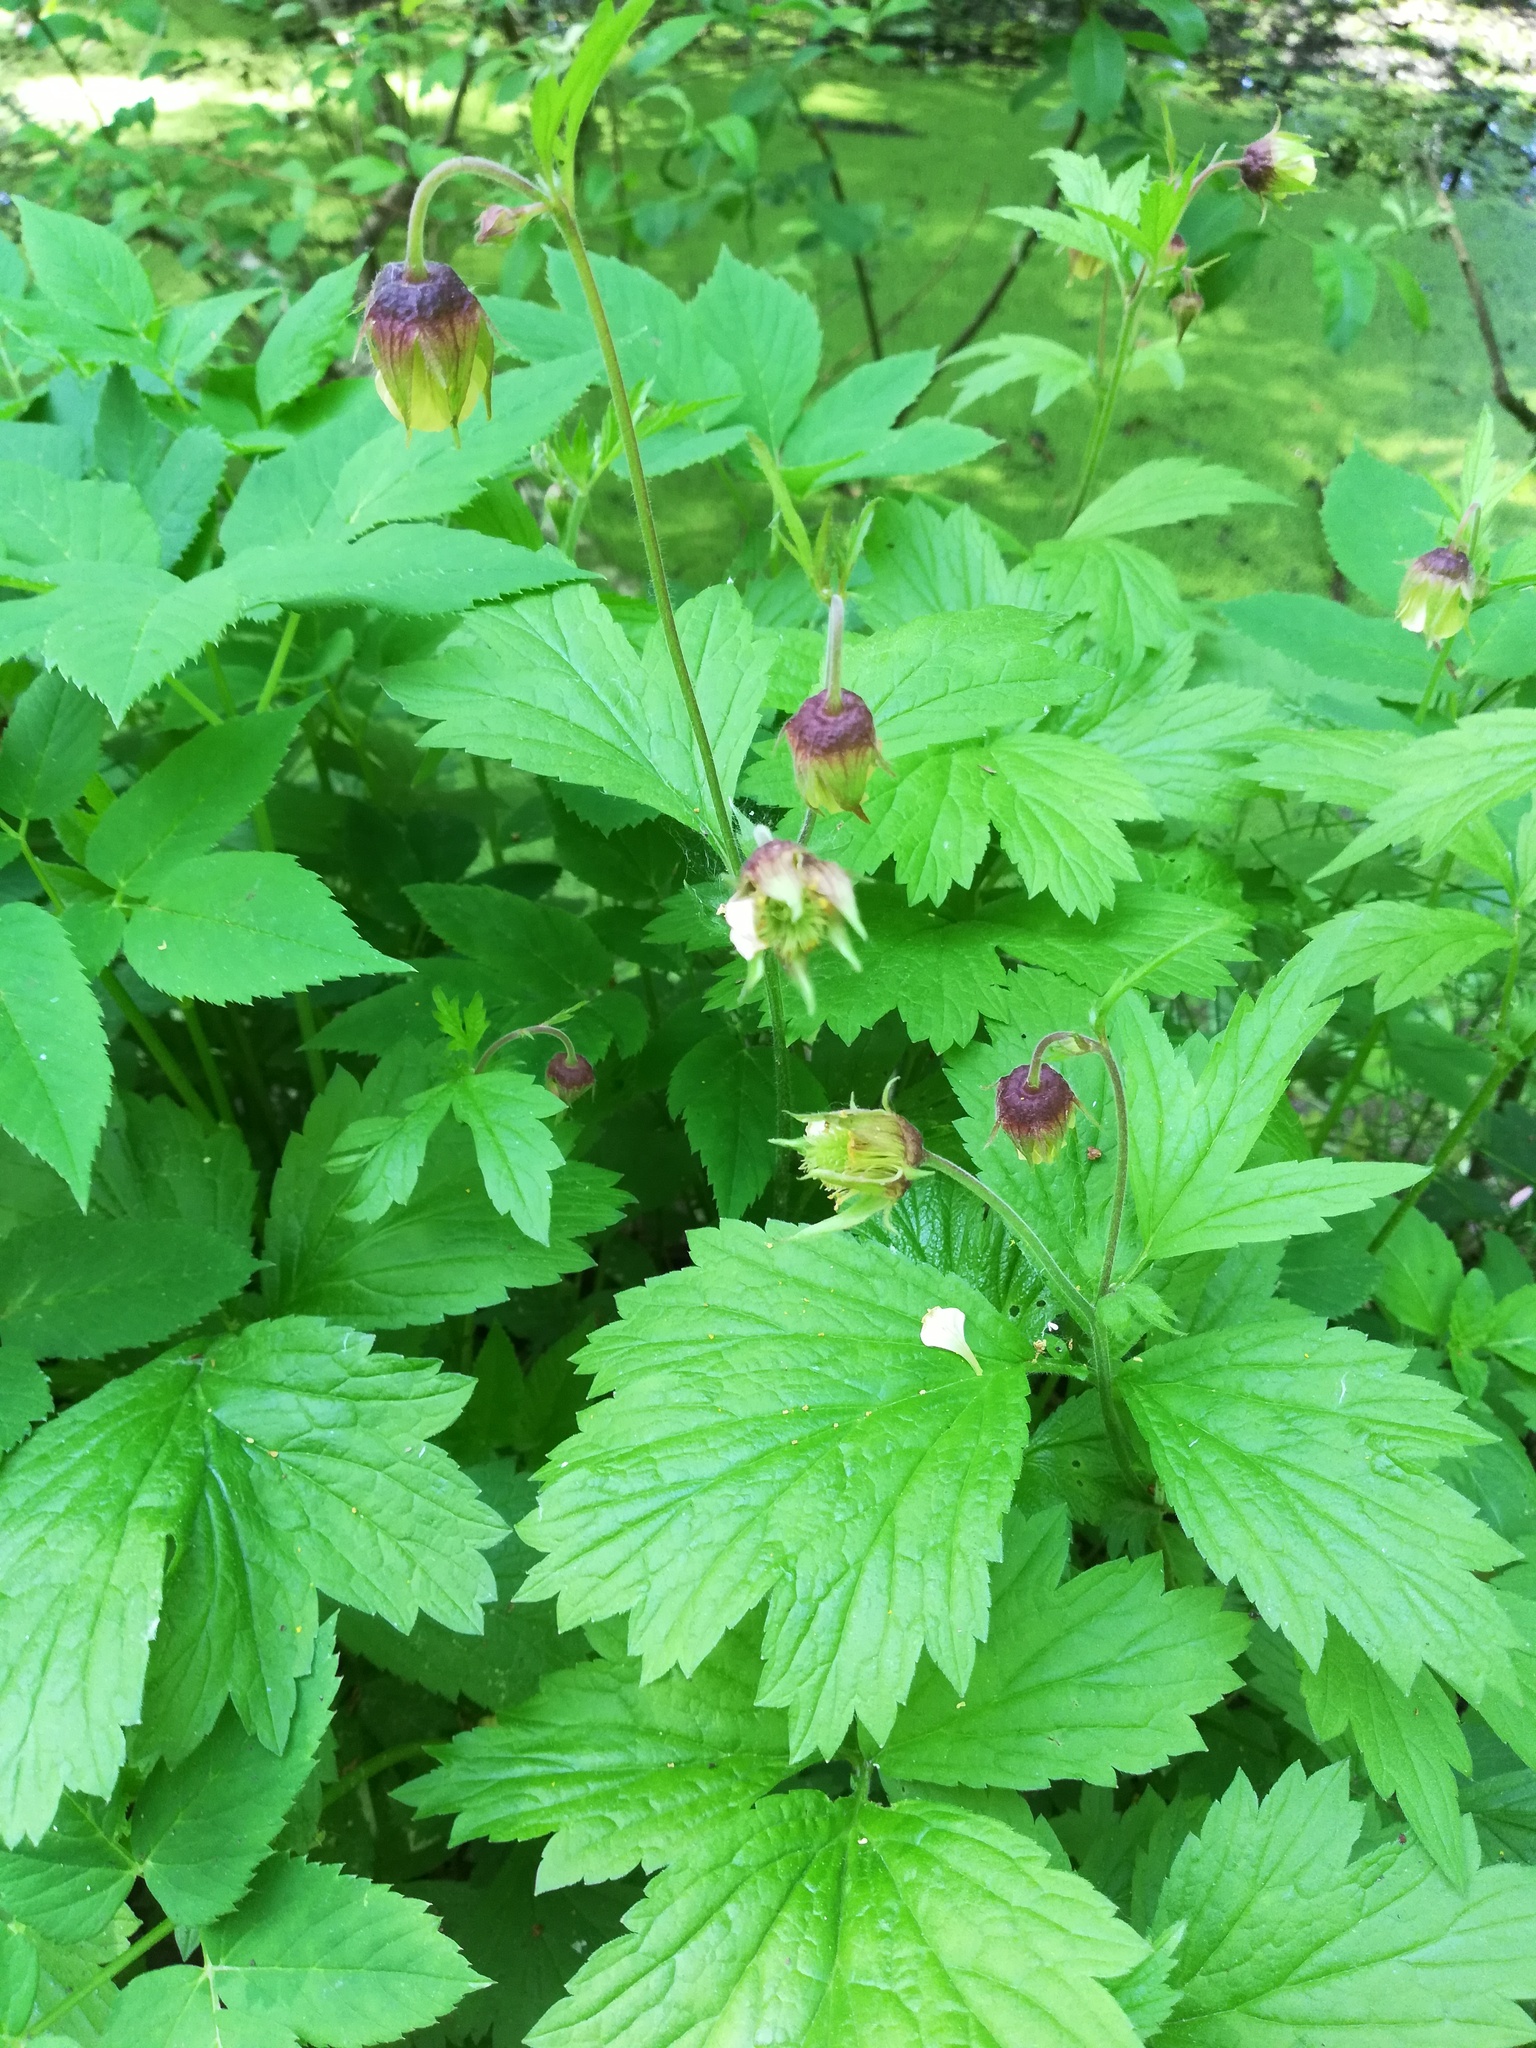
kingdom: Plantae
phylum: Tracheophyta
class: Magnoliopsida
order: Rosales
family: Rosaceae
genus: Geum
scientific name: Geum rivale
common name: Water avens
